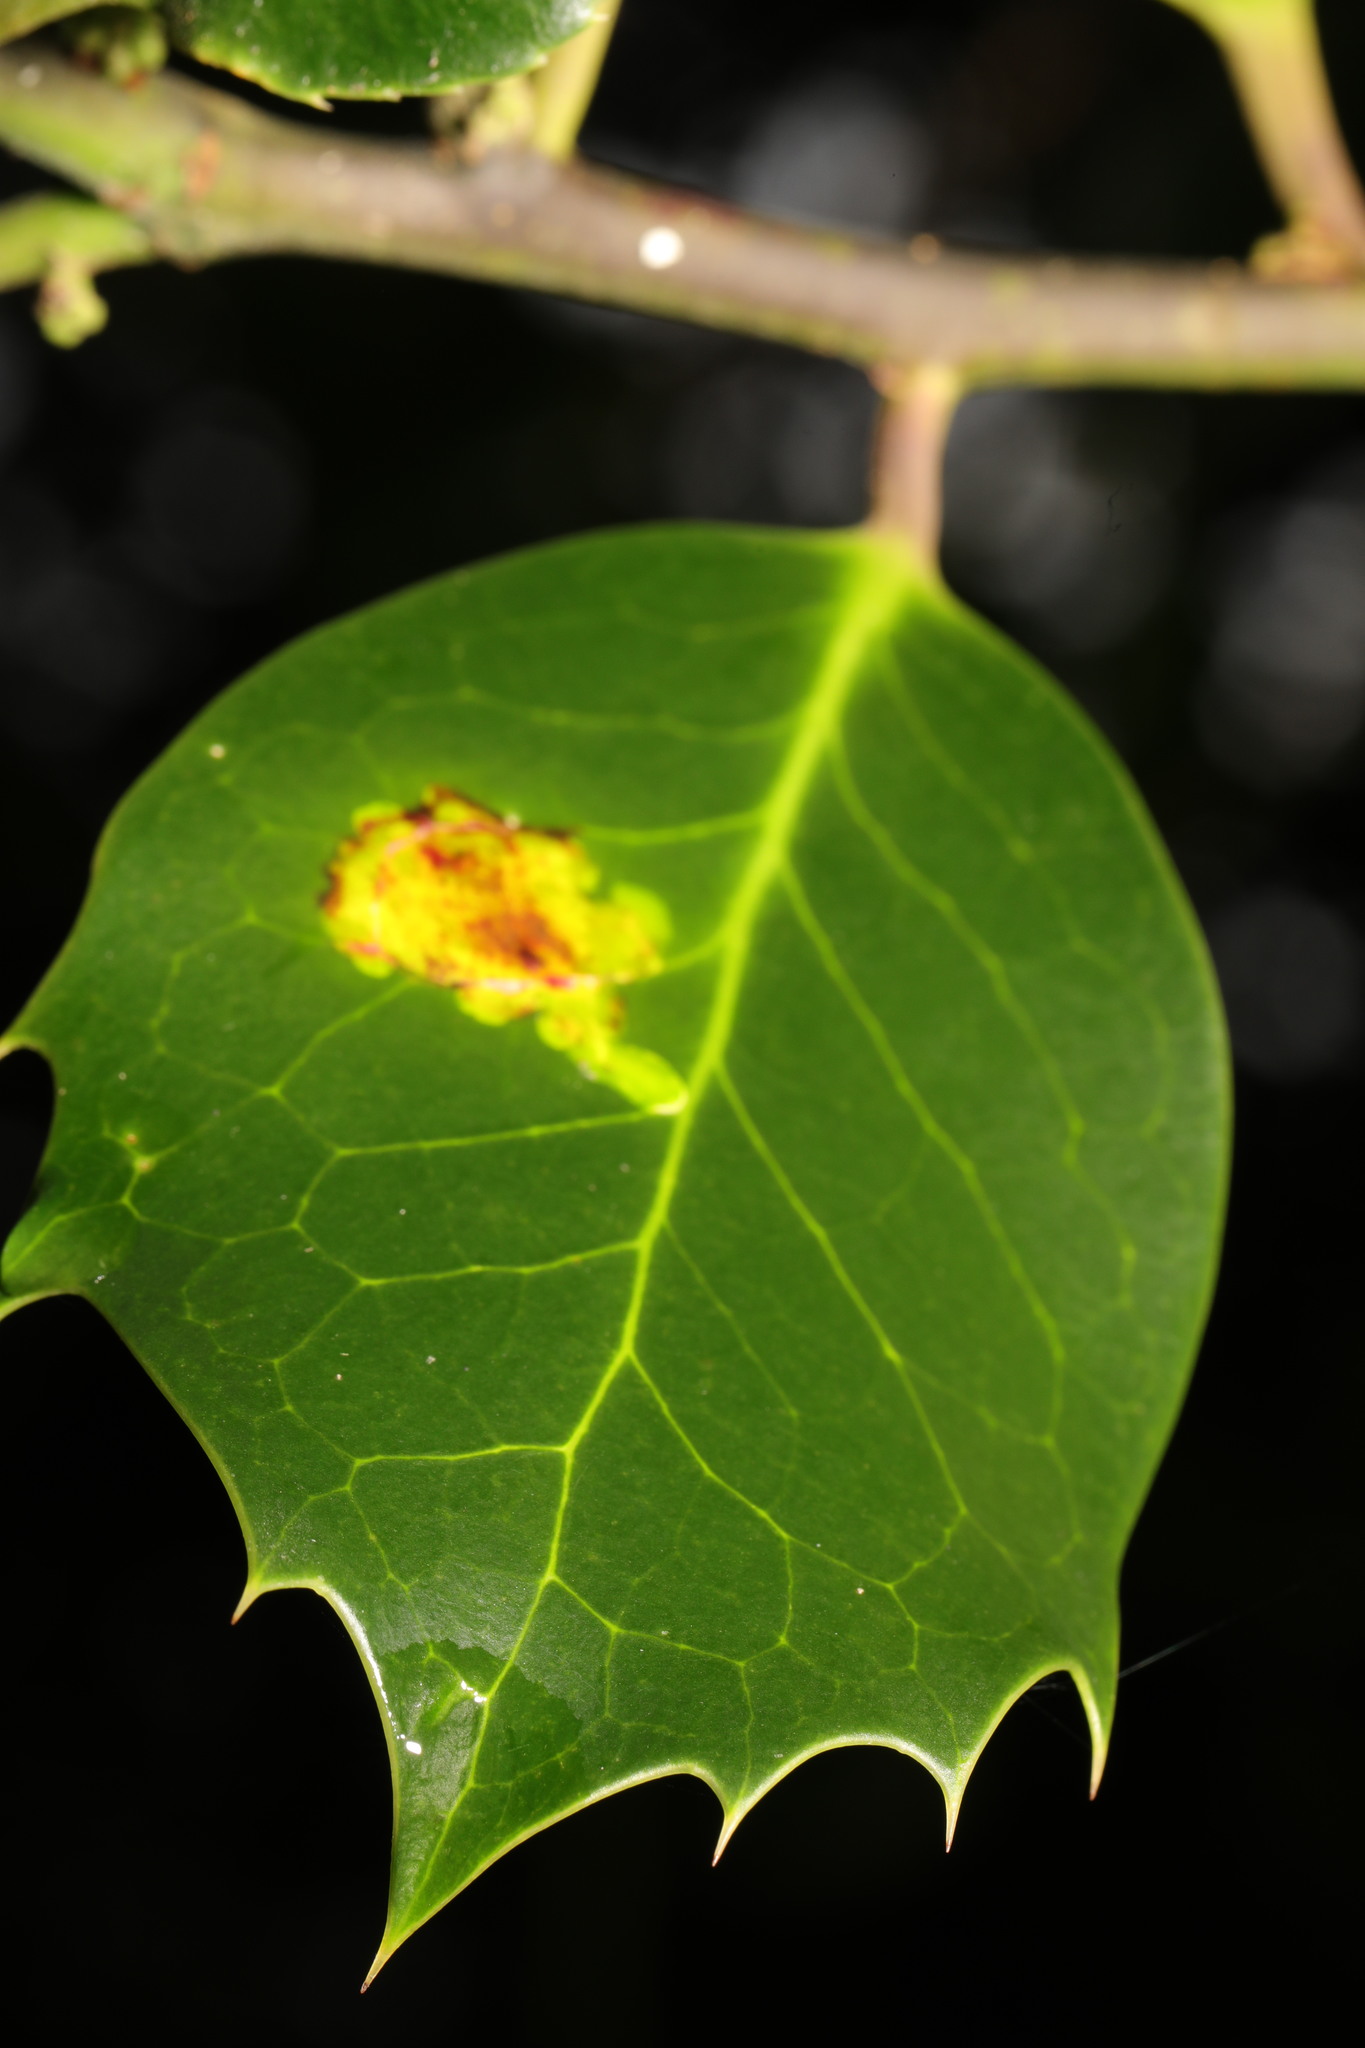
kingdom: Animalia
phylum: Arthropoda
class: Insecta
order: Diptera
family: Agromyzidae
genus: Phytomyza
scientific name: Phytomyza ilicis
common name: Holly leafminer
